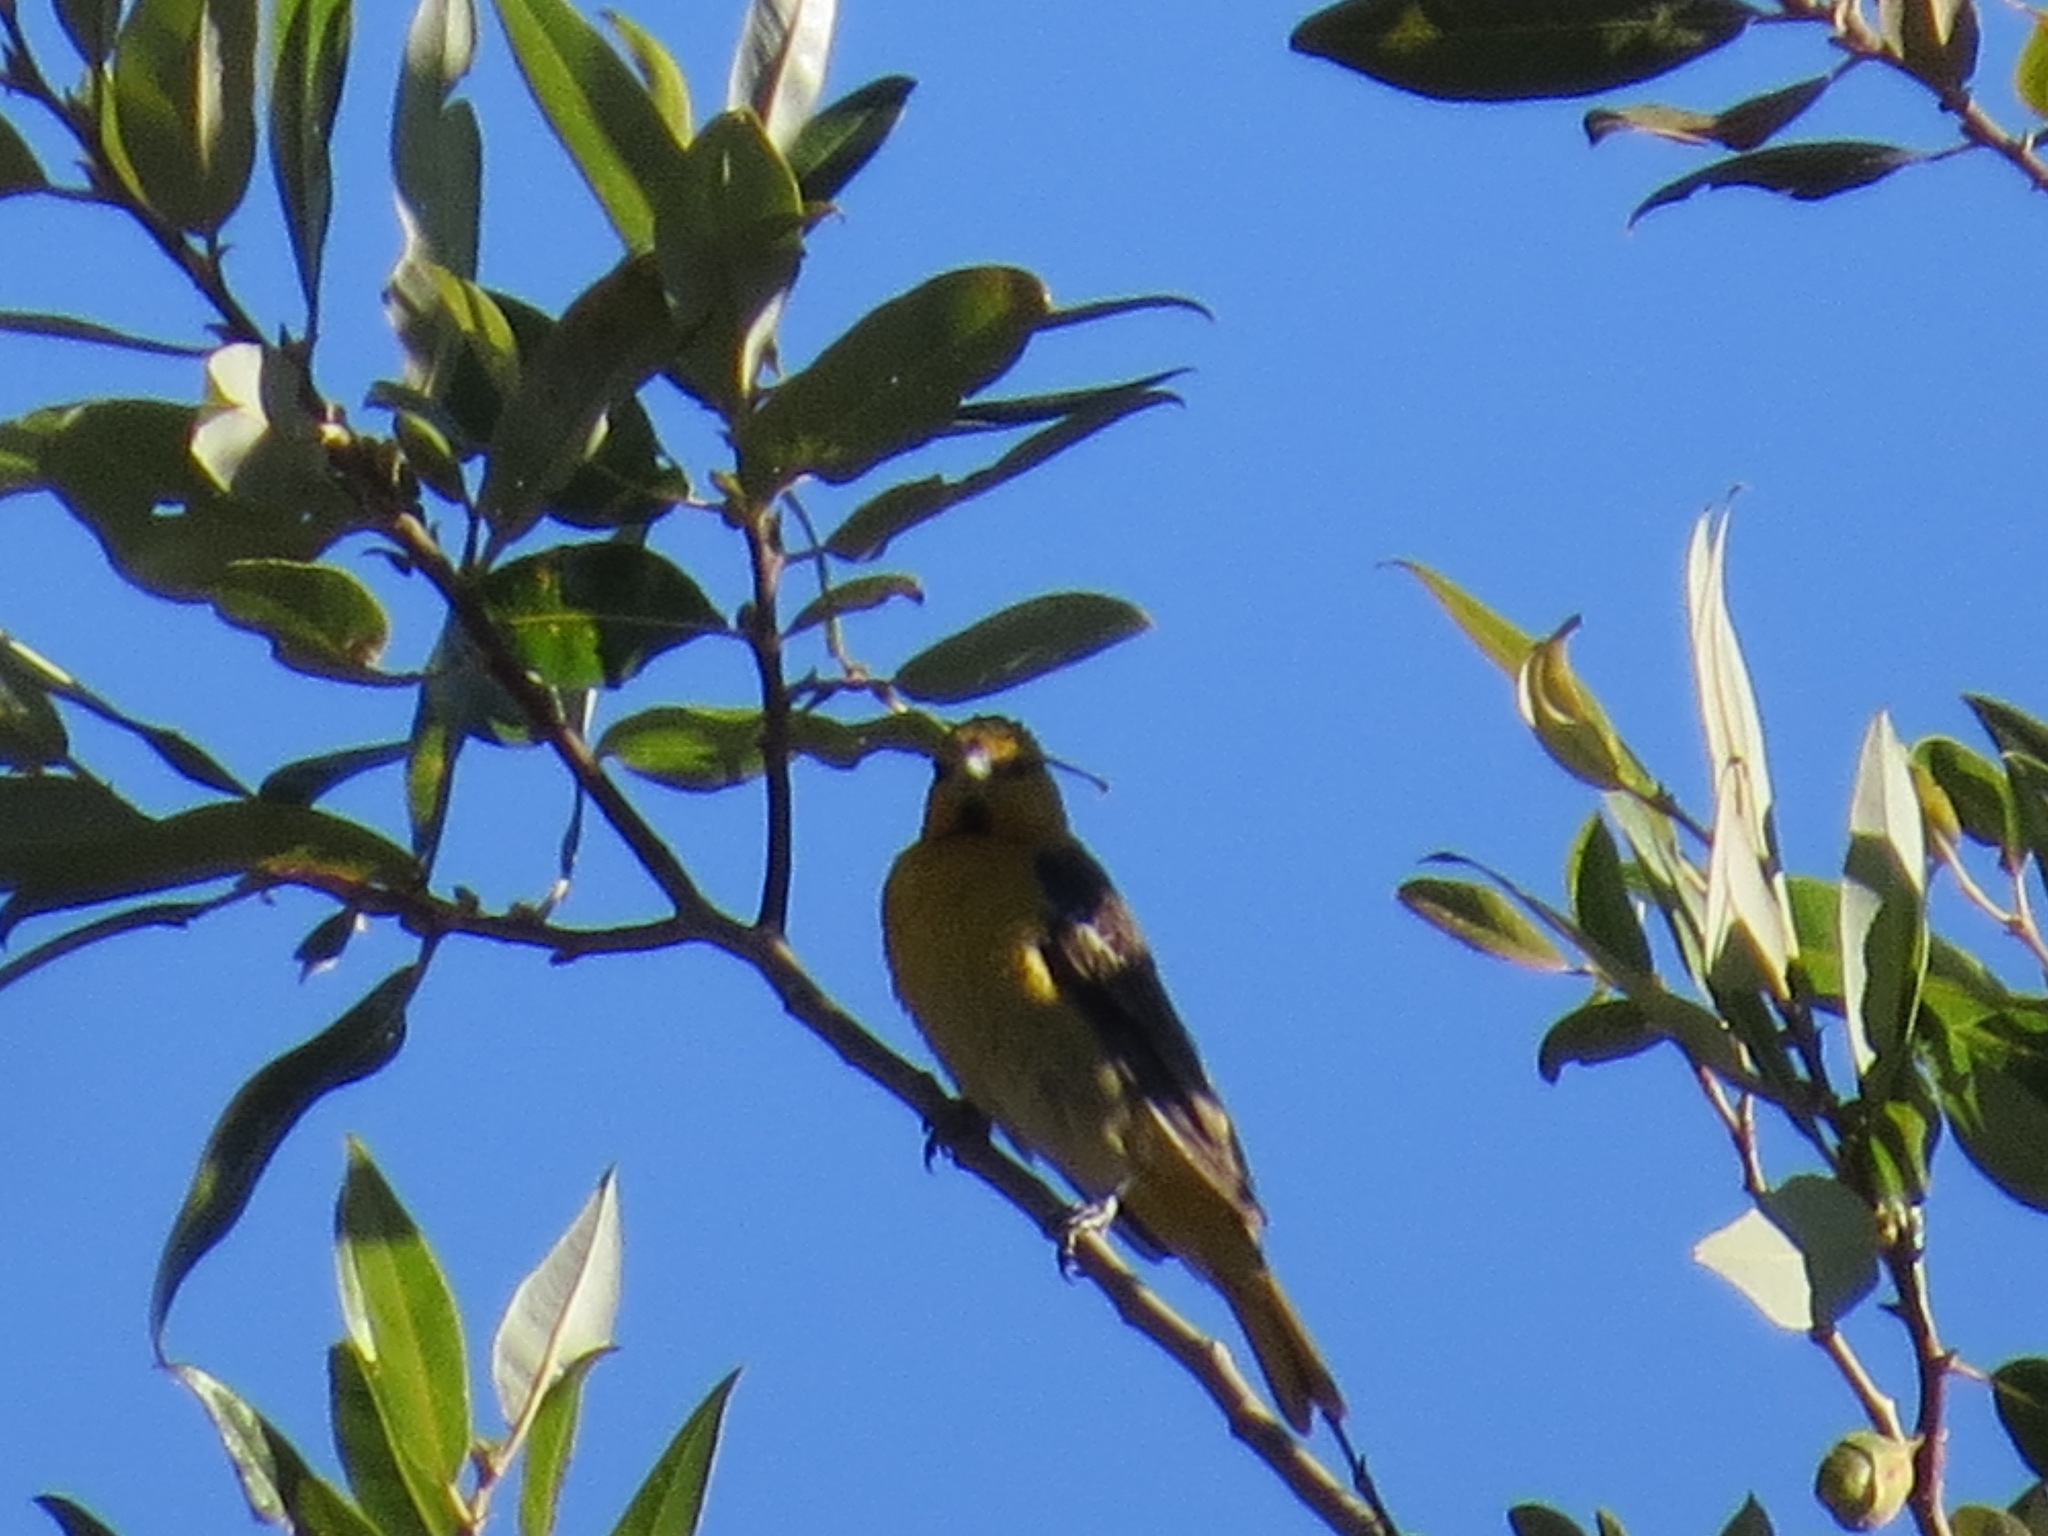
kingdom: Animalia
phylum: Chordata
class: Aves
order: Passeriformes
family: Icteridae
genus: Icterus
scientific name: Icterus bullockii
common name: Bullock's oriole
